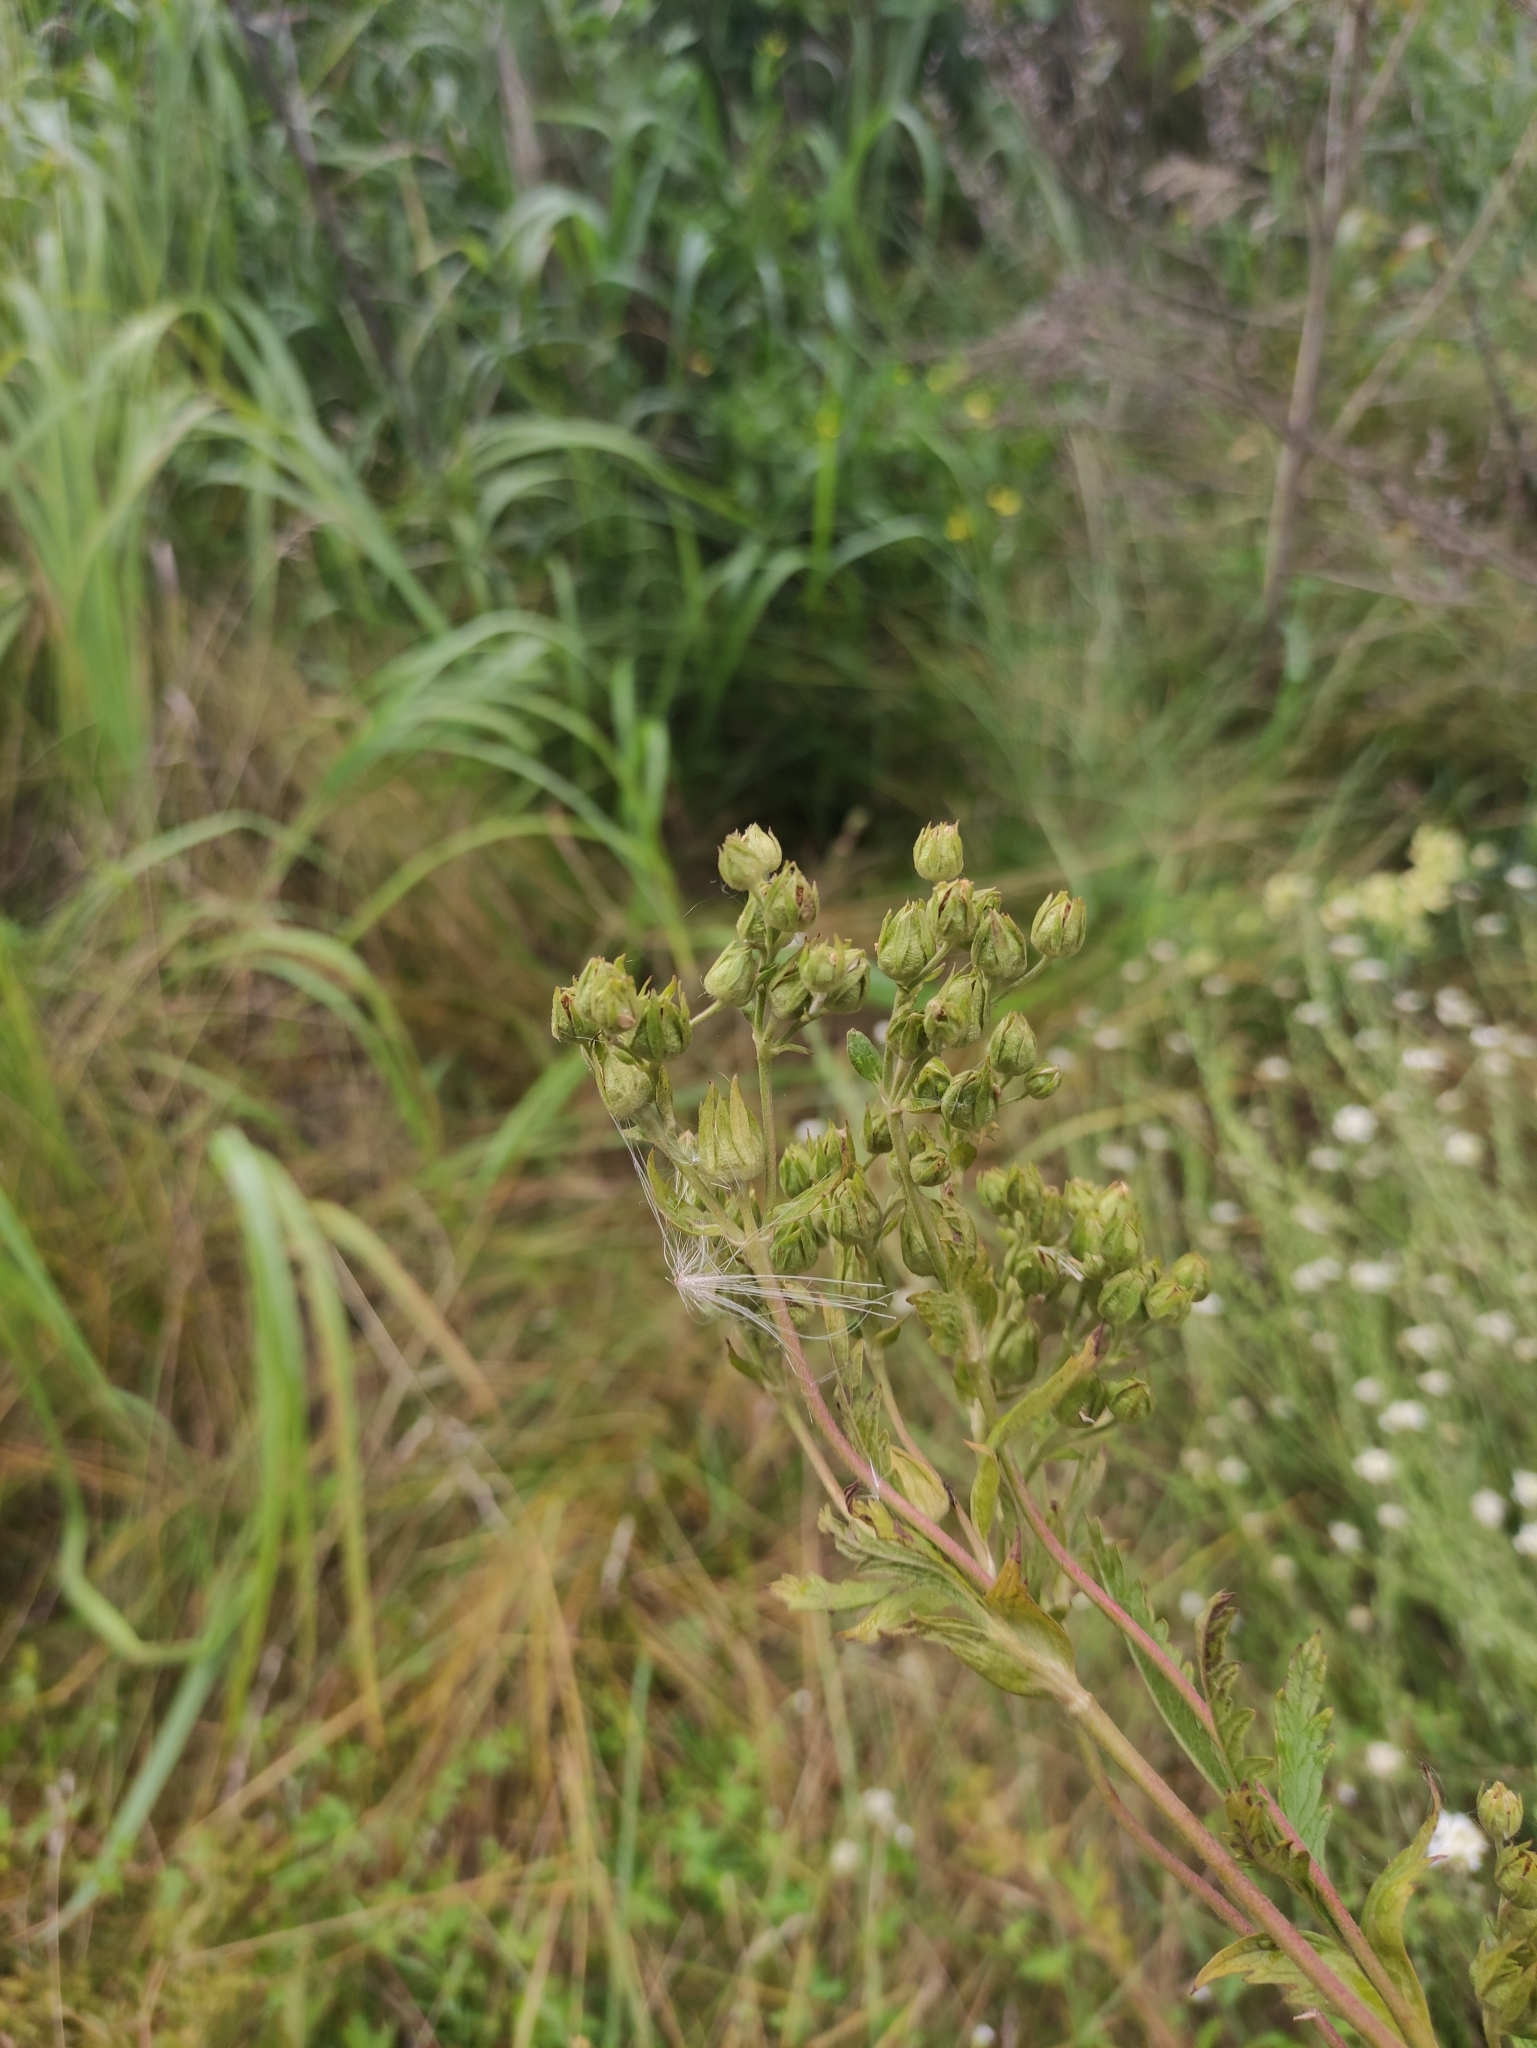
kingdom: Plantae
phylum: Tracheophyta
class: Magnoliopsida
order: Rosales
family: Rosaceae
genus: Potentilla
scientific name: Potentilla tanacetifolia
